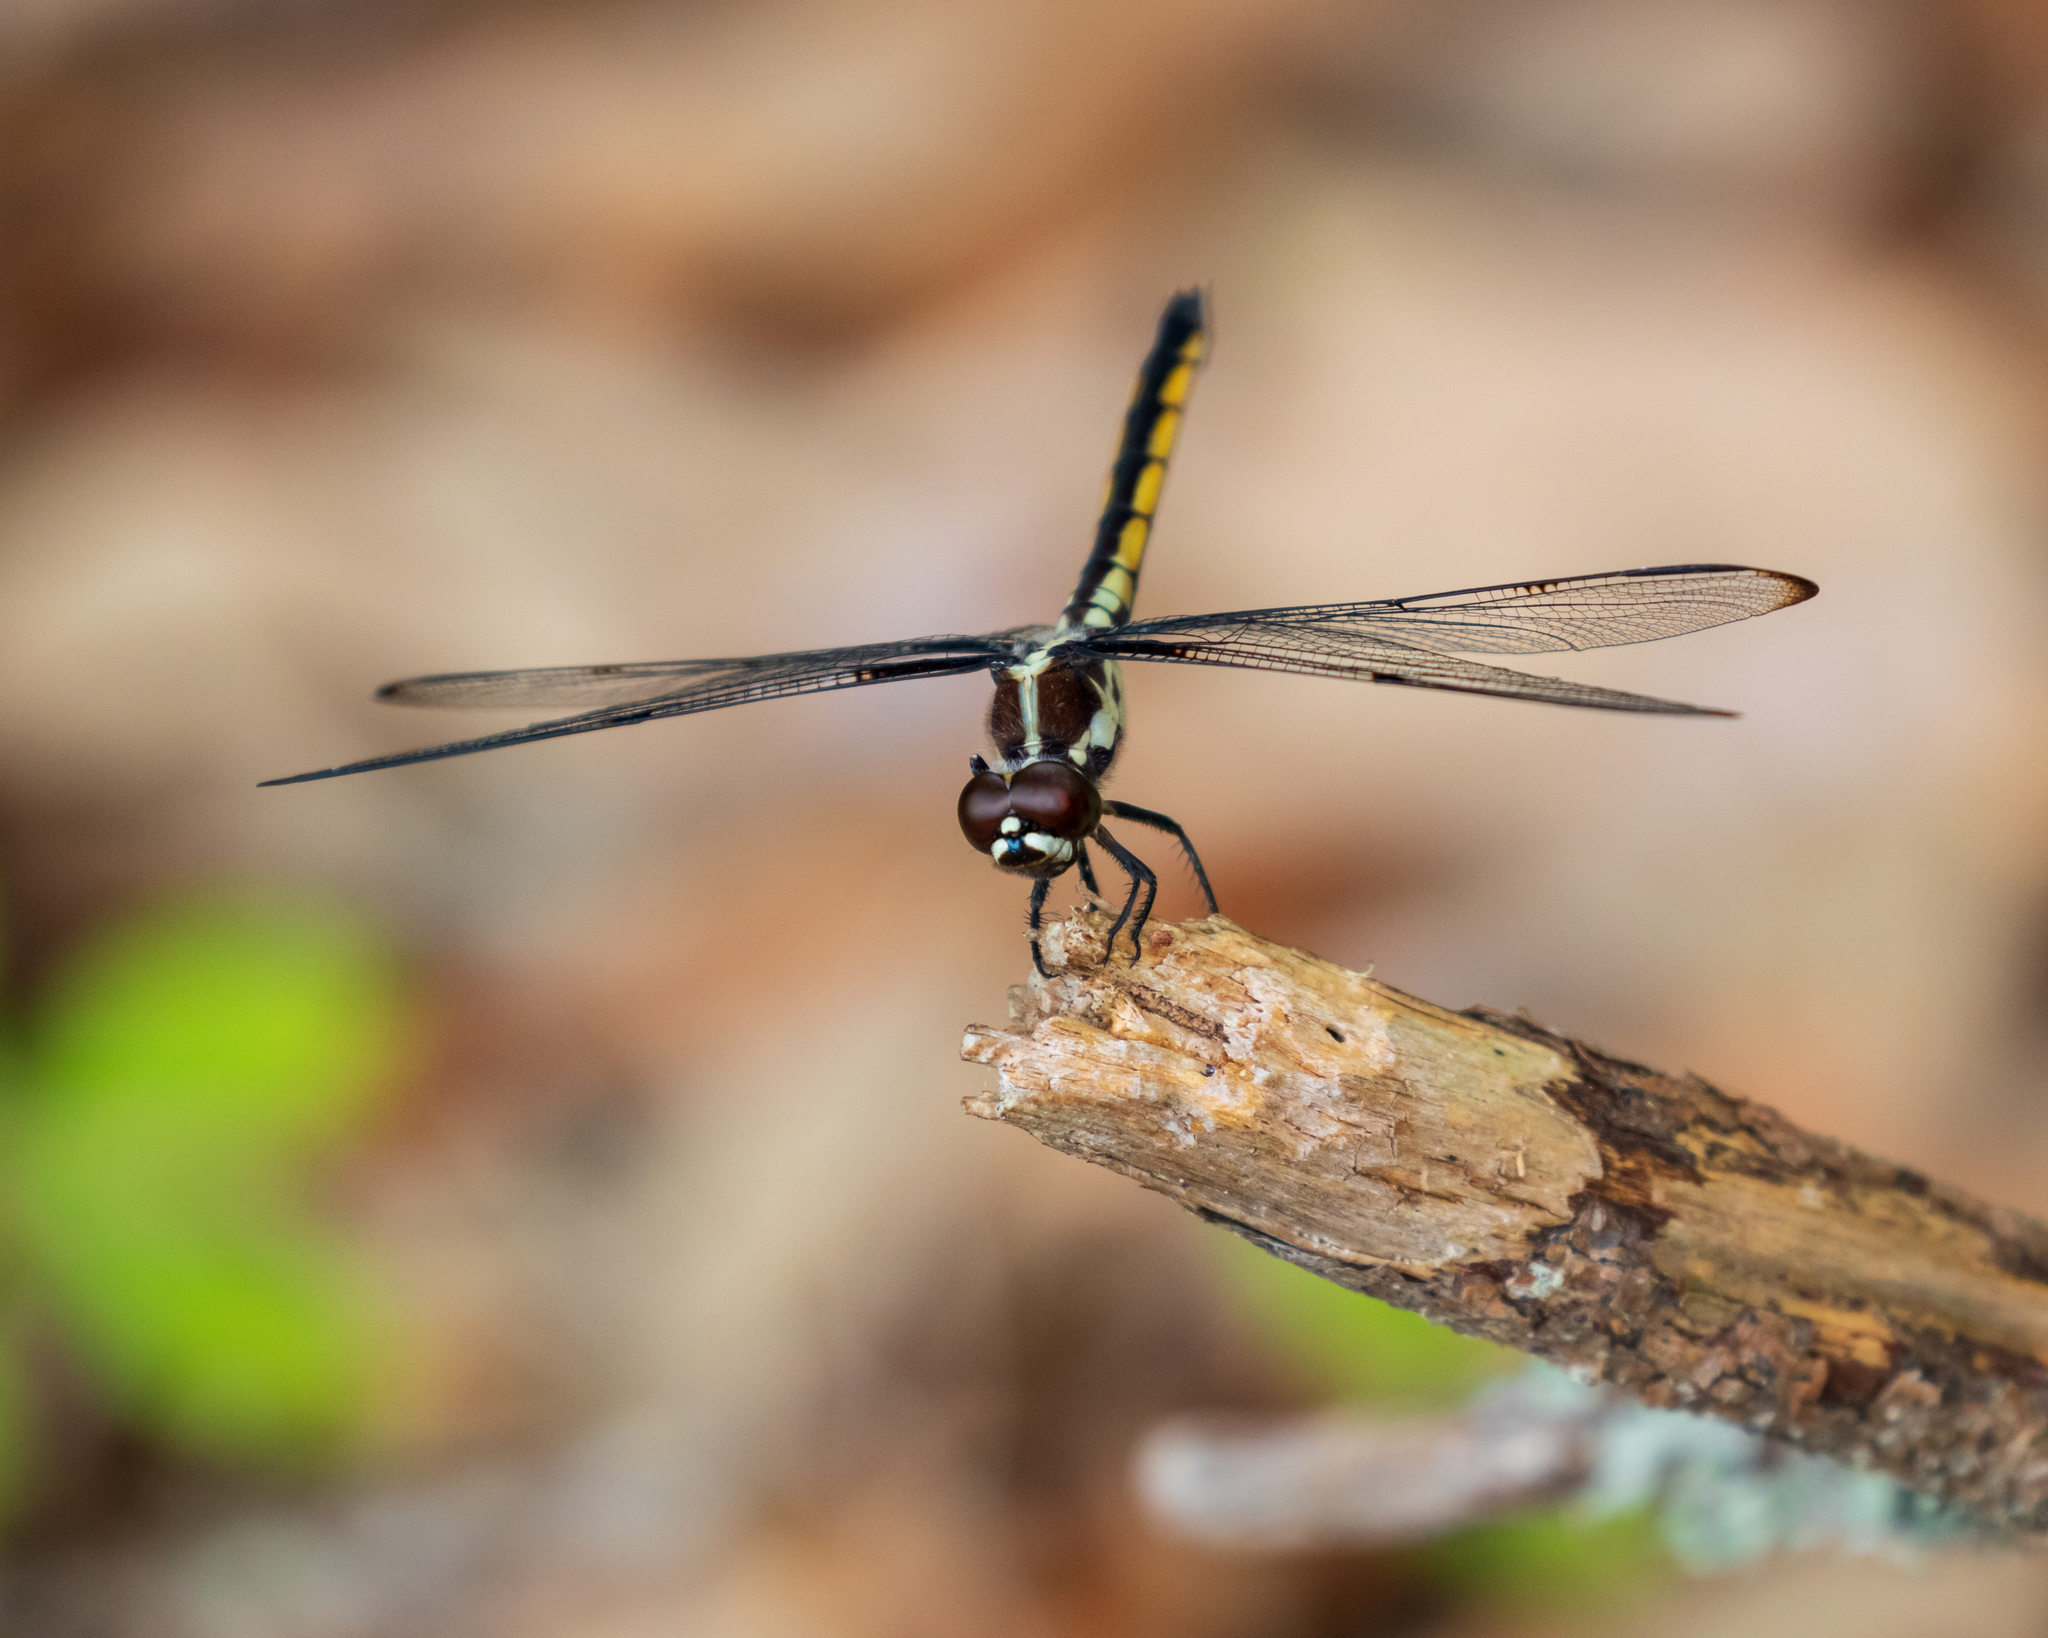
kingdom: Animalia
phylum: Arthropoda
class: Insecta
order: Odonata
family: Libellulidae
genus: Libellula
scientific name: Libellula axilena
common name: Bar-winged skimmer
